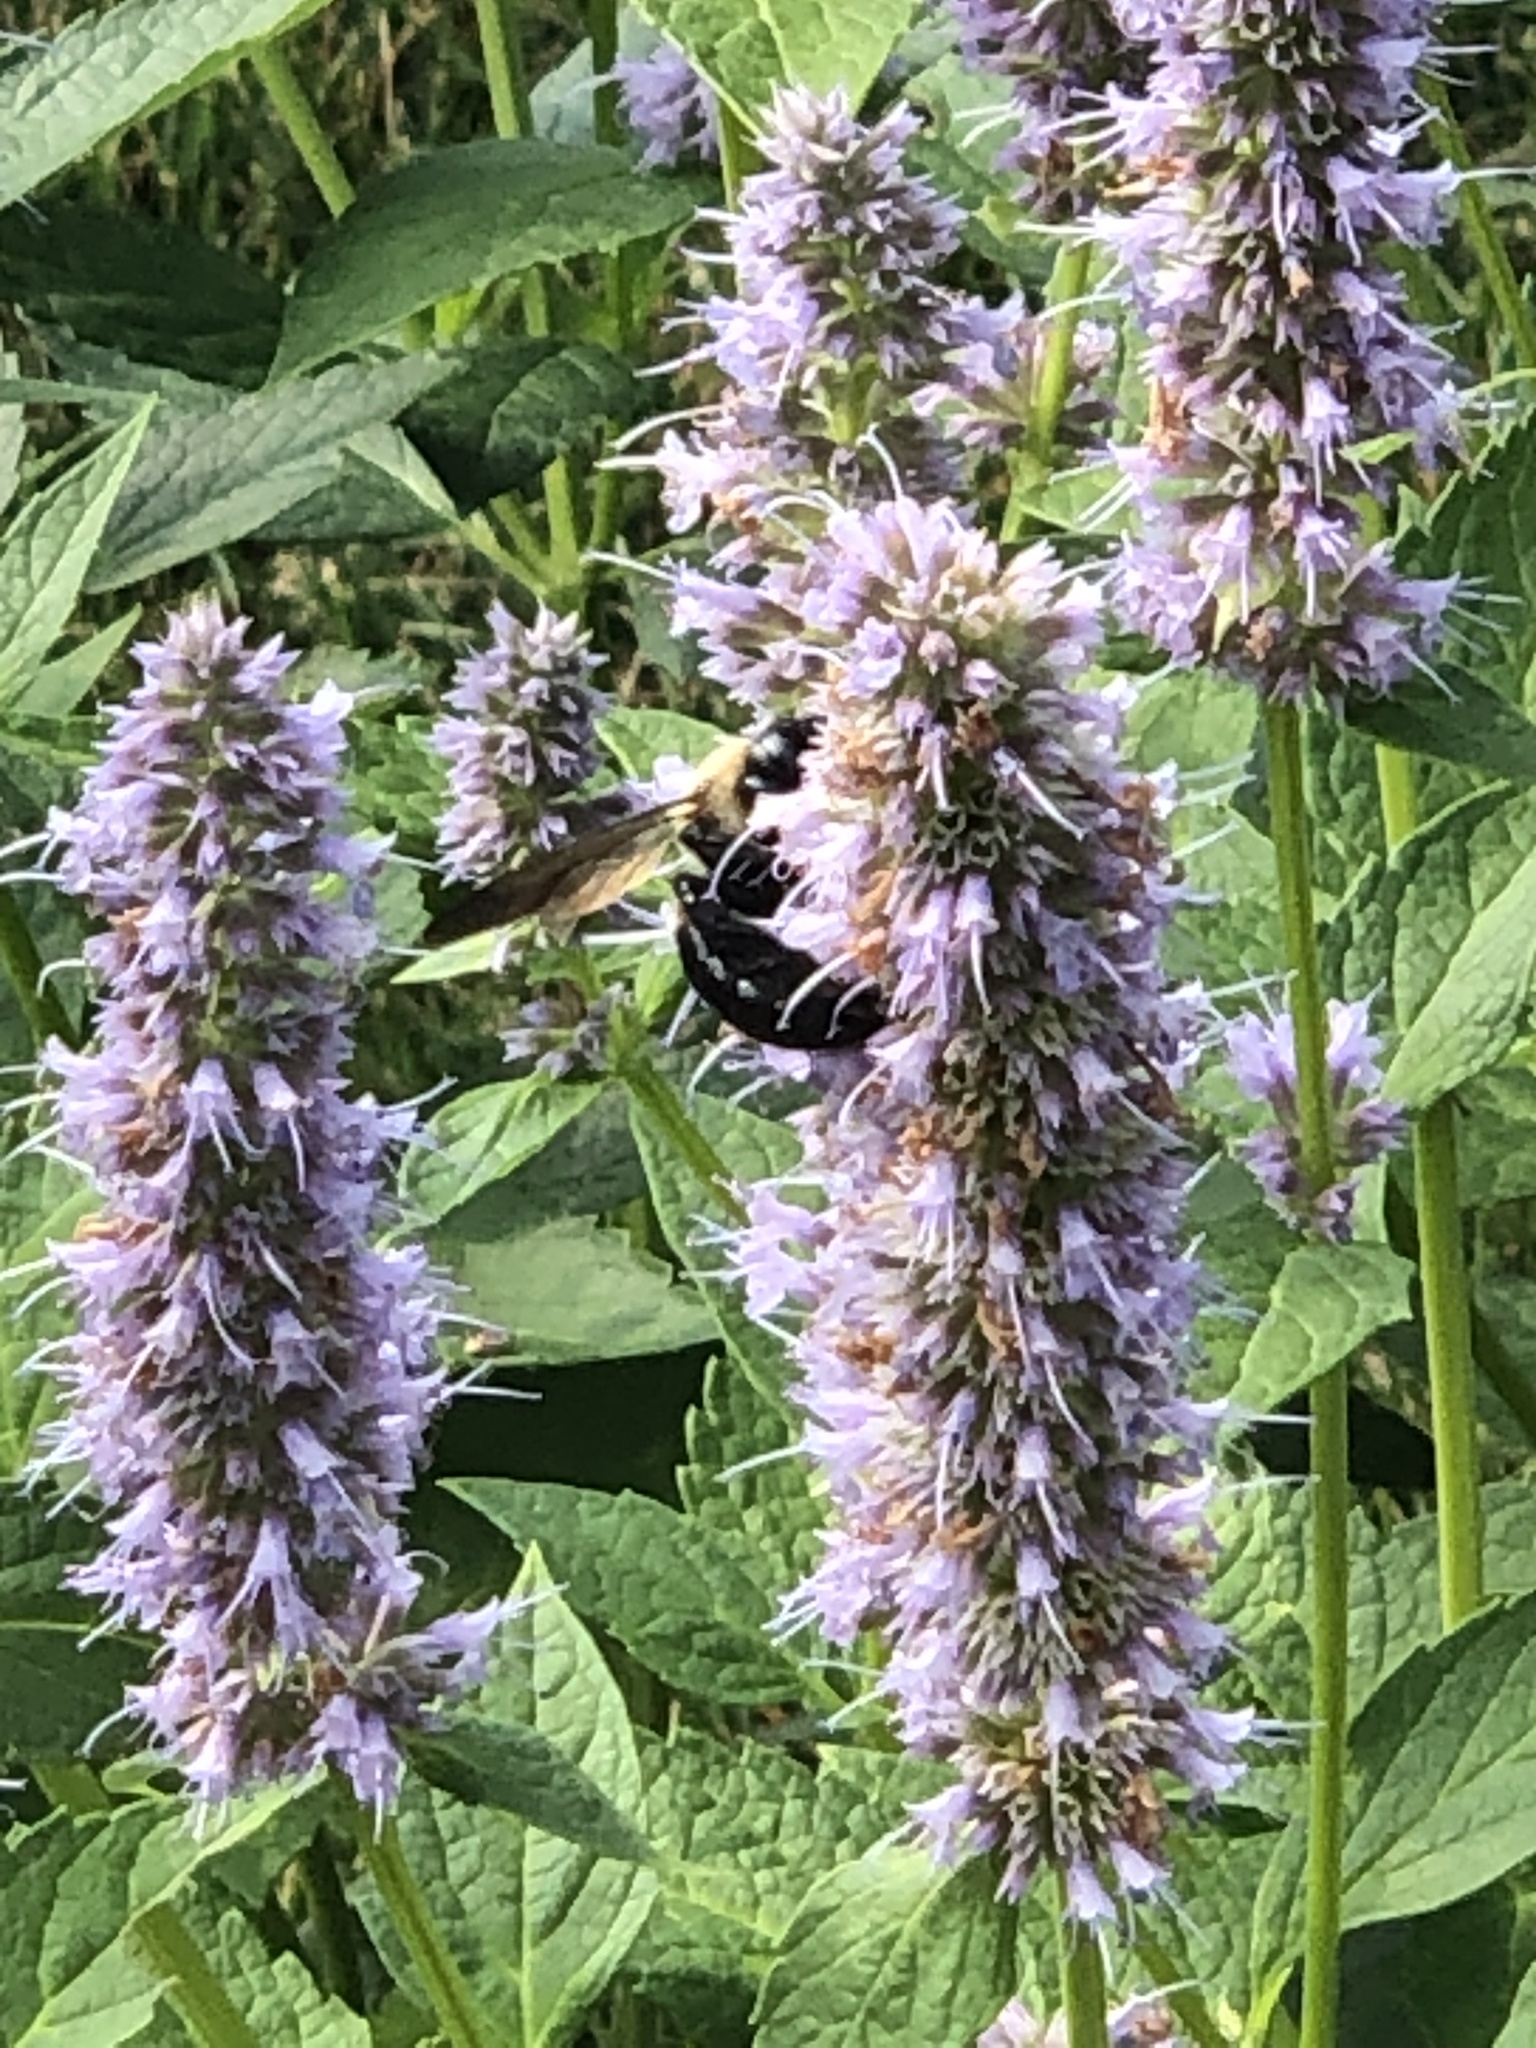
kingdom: Animalia
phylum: Arthropoda
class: Insecta
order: Hymenoptera
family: Apidae
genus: Xylocopa
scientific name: Xylocopa virginica
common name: Carpenter bee
